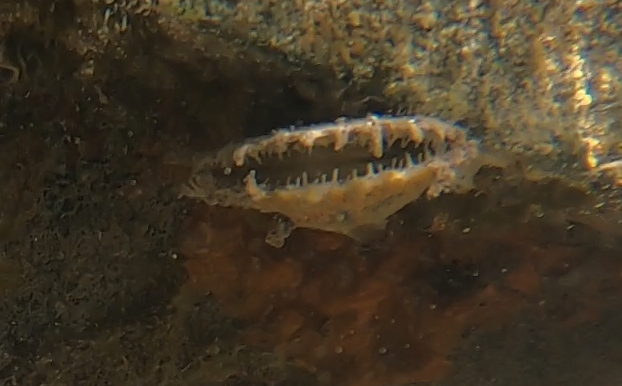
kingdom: Animalia
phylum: Mollusca
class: Bivalvia
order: Ostreida
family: Pinnidae
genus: Atrina
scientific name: Atrina rigida
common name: Stiff penshell
